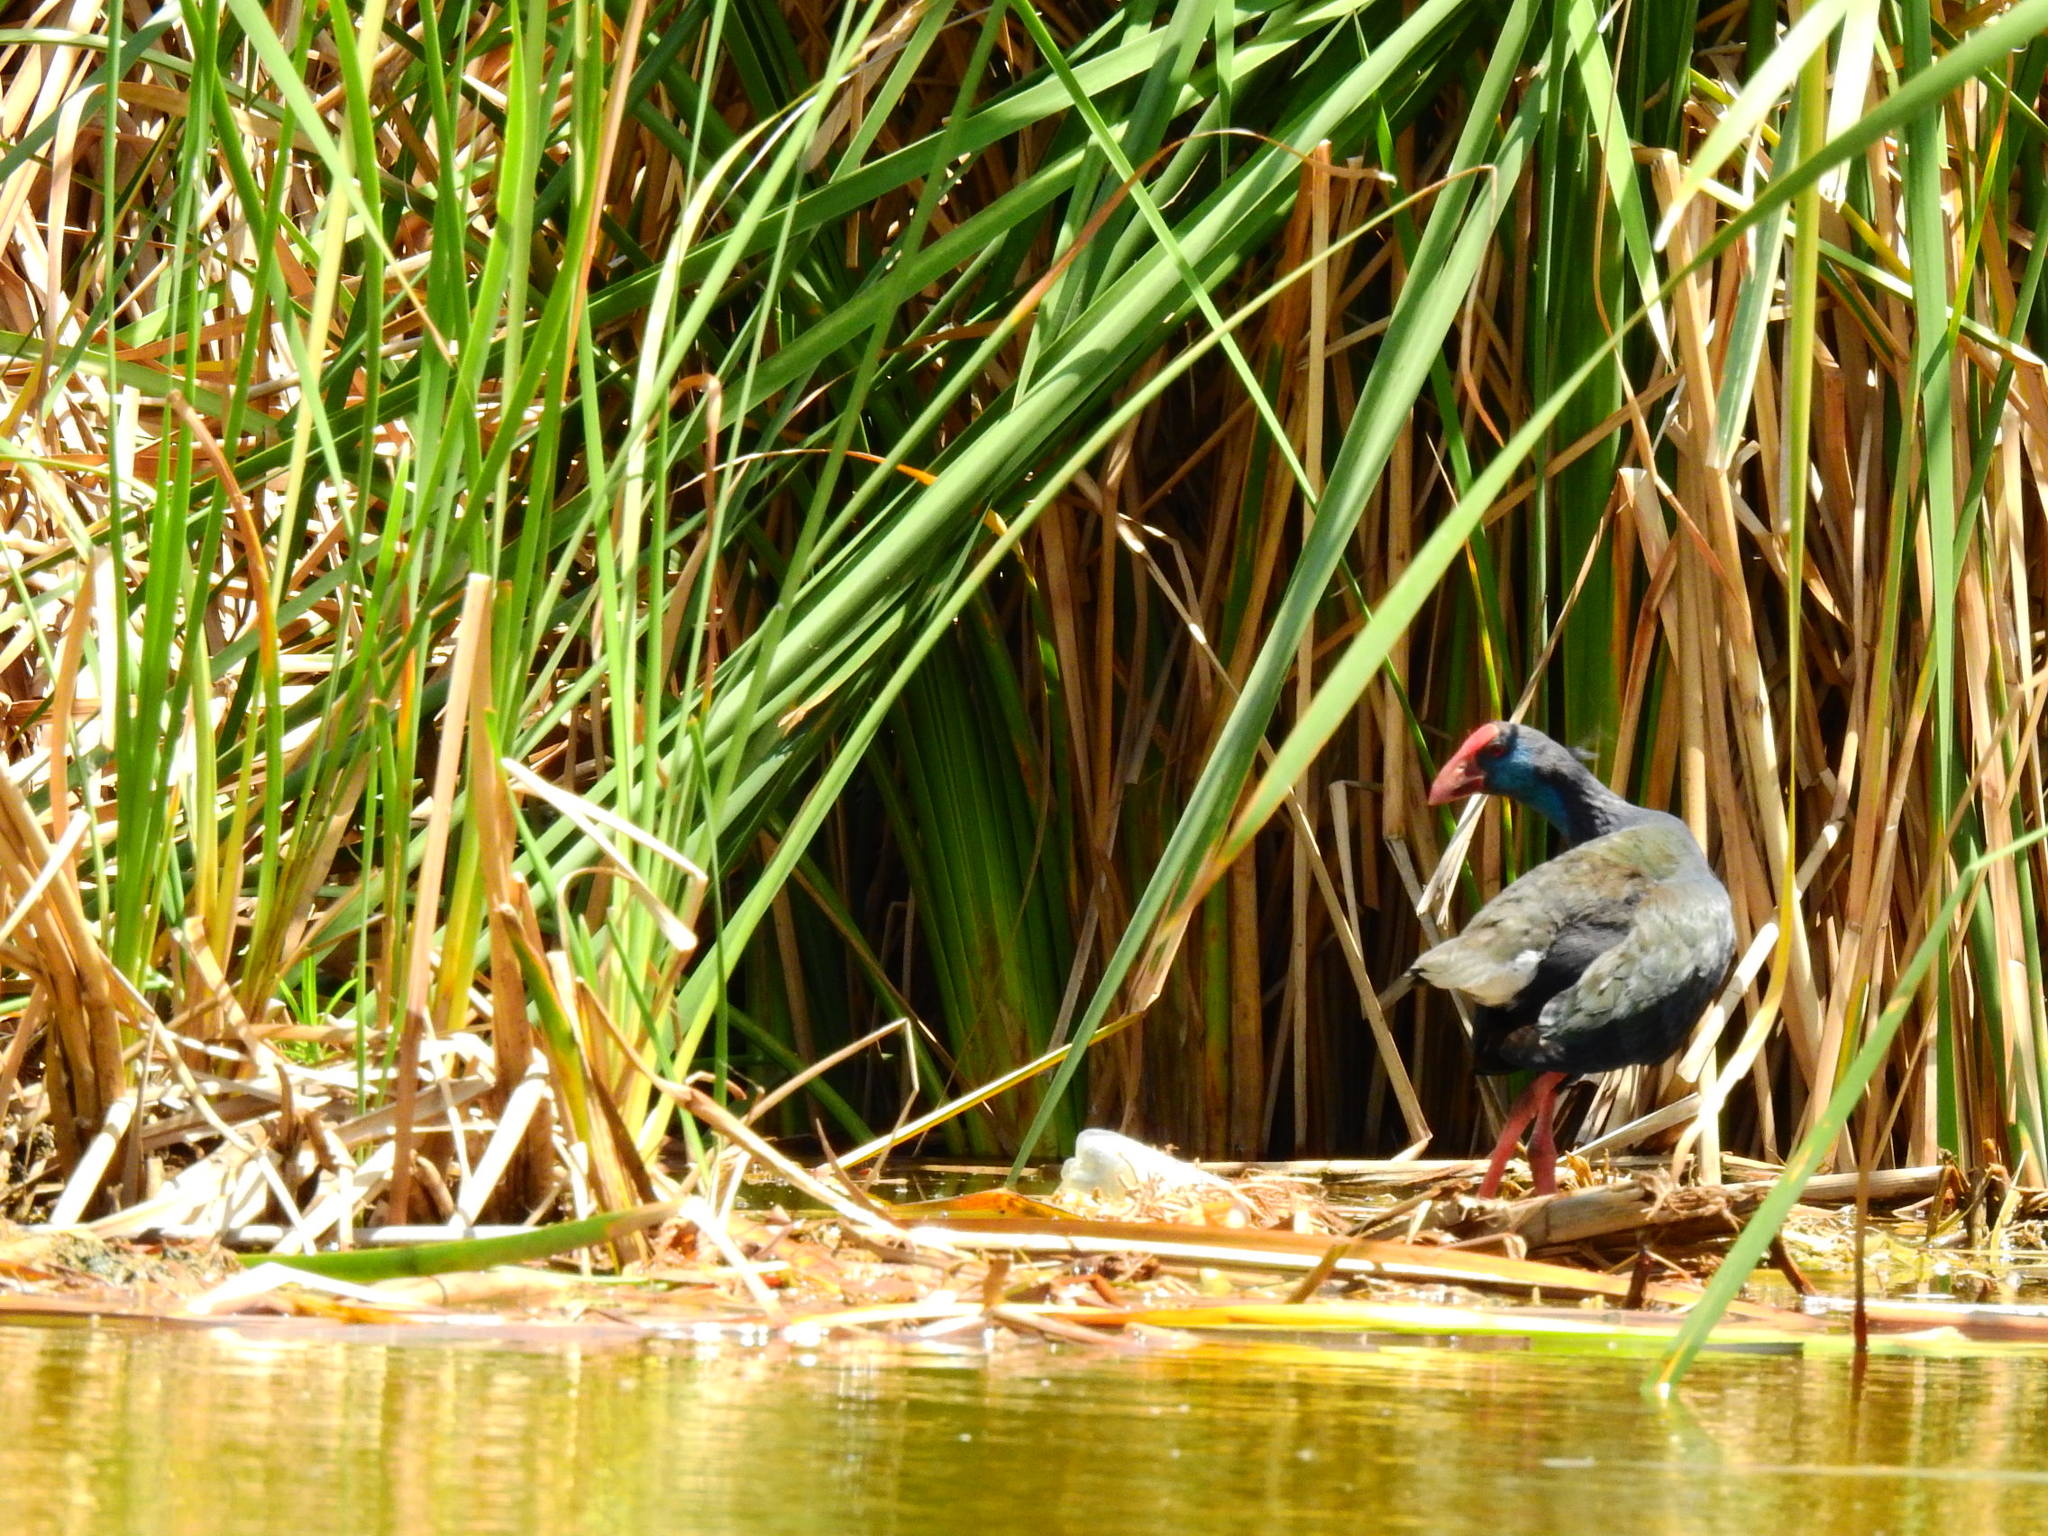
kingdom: Animalia
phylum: Chordata
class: Aves
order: Gruiformes
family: Rallidae
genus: Porphyrio
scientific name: Porphyrio porphyrio
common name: Purple swamphen
